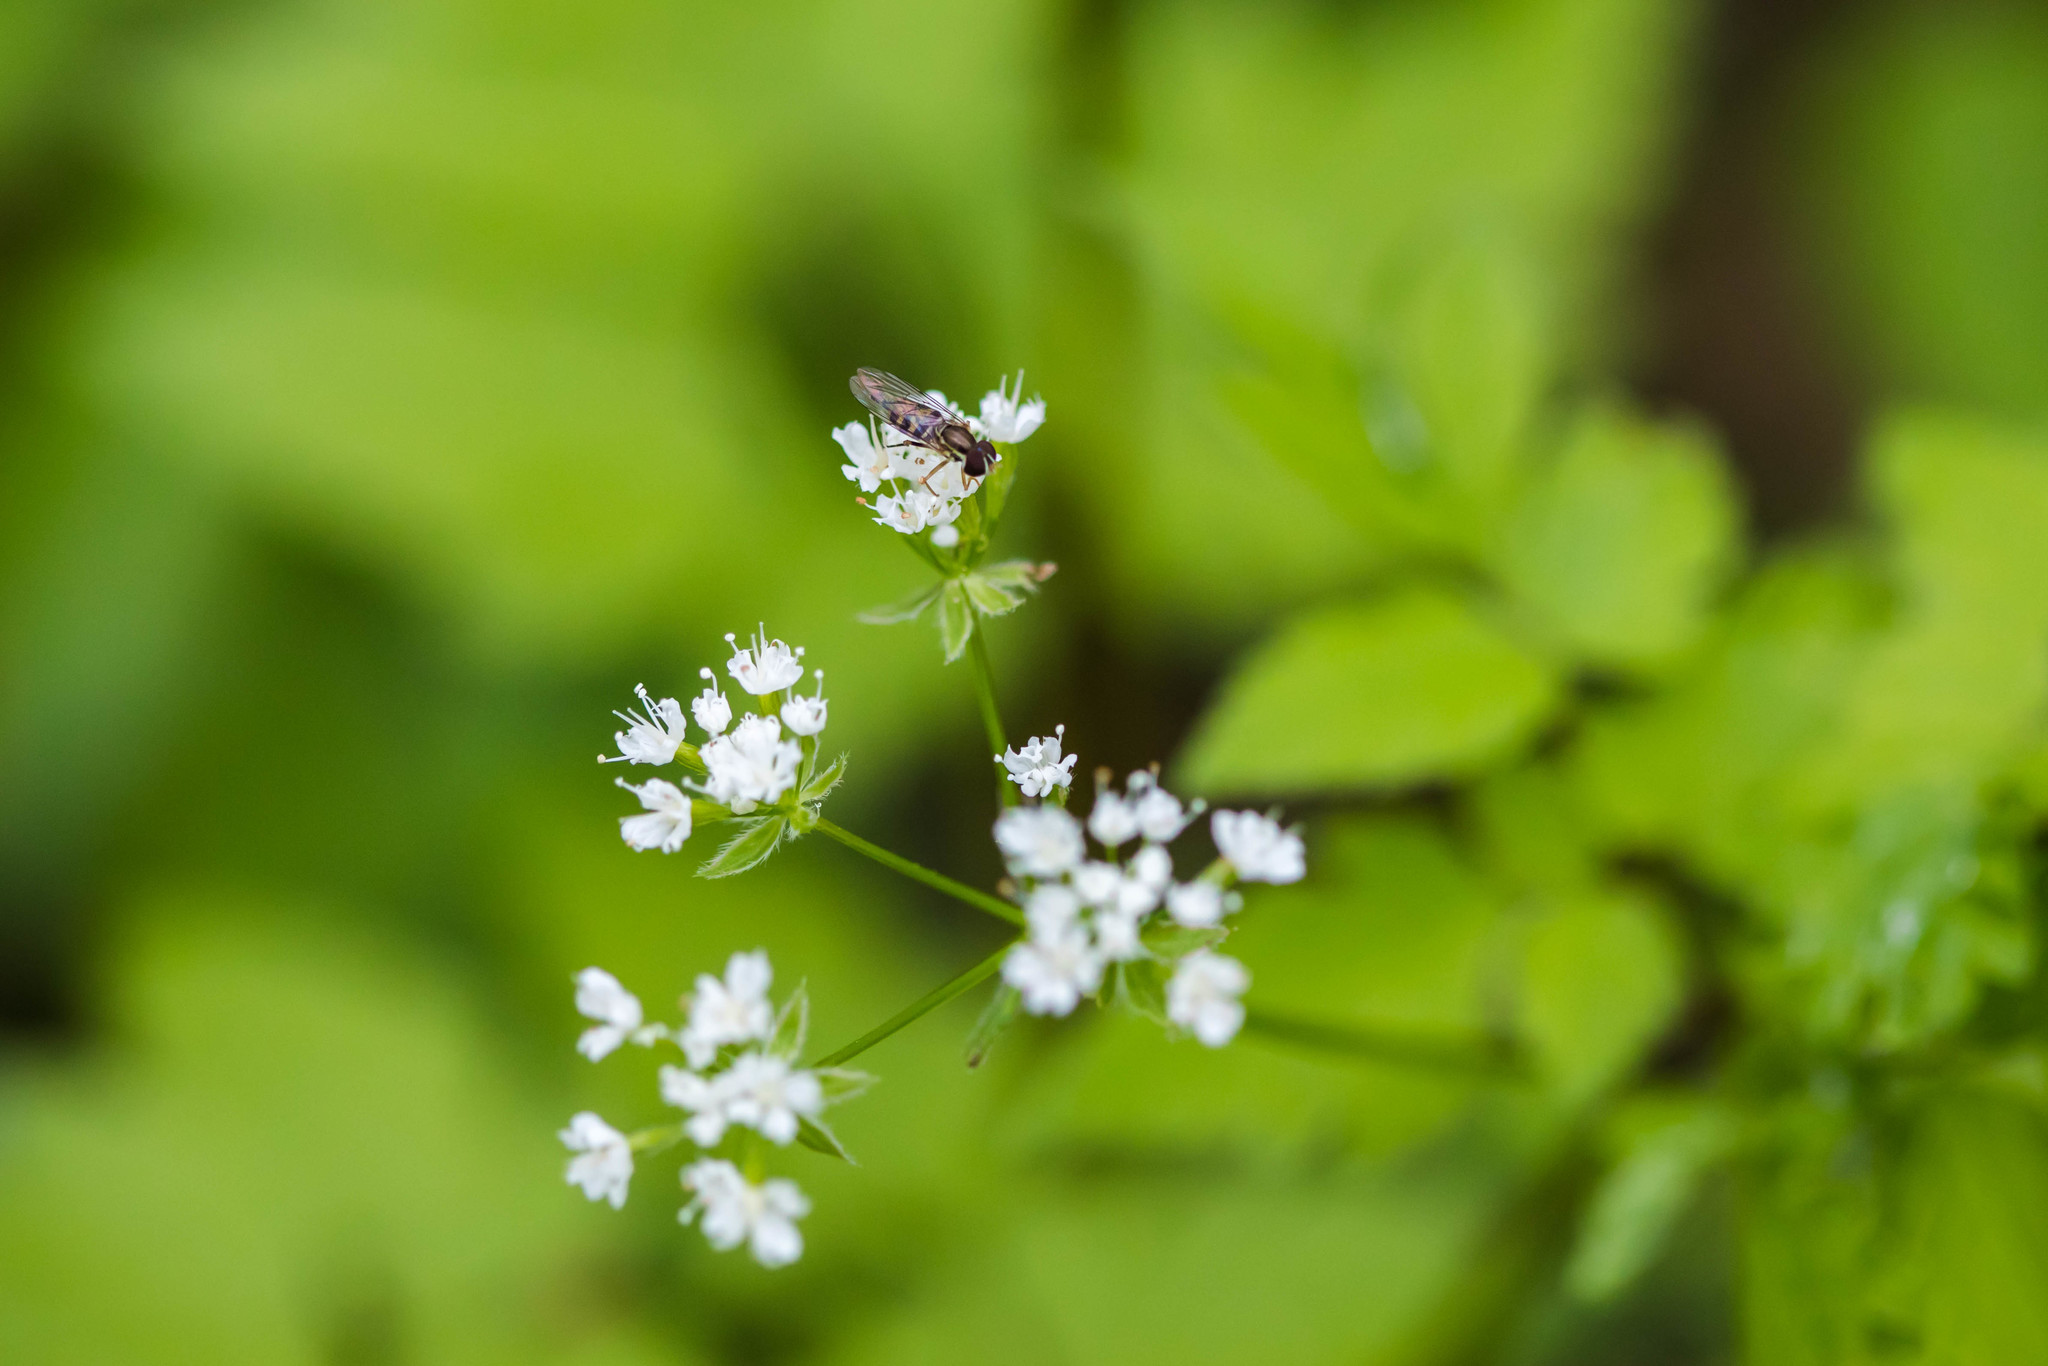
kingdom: Animalia
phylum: Arthropoda
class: Insecta
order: Diptera
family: Syrphidae
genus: Toxomerus
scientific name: Toxomerus geminatus
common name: Eastern calligrapher
